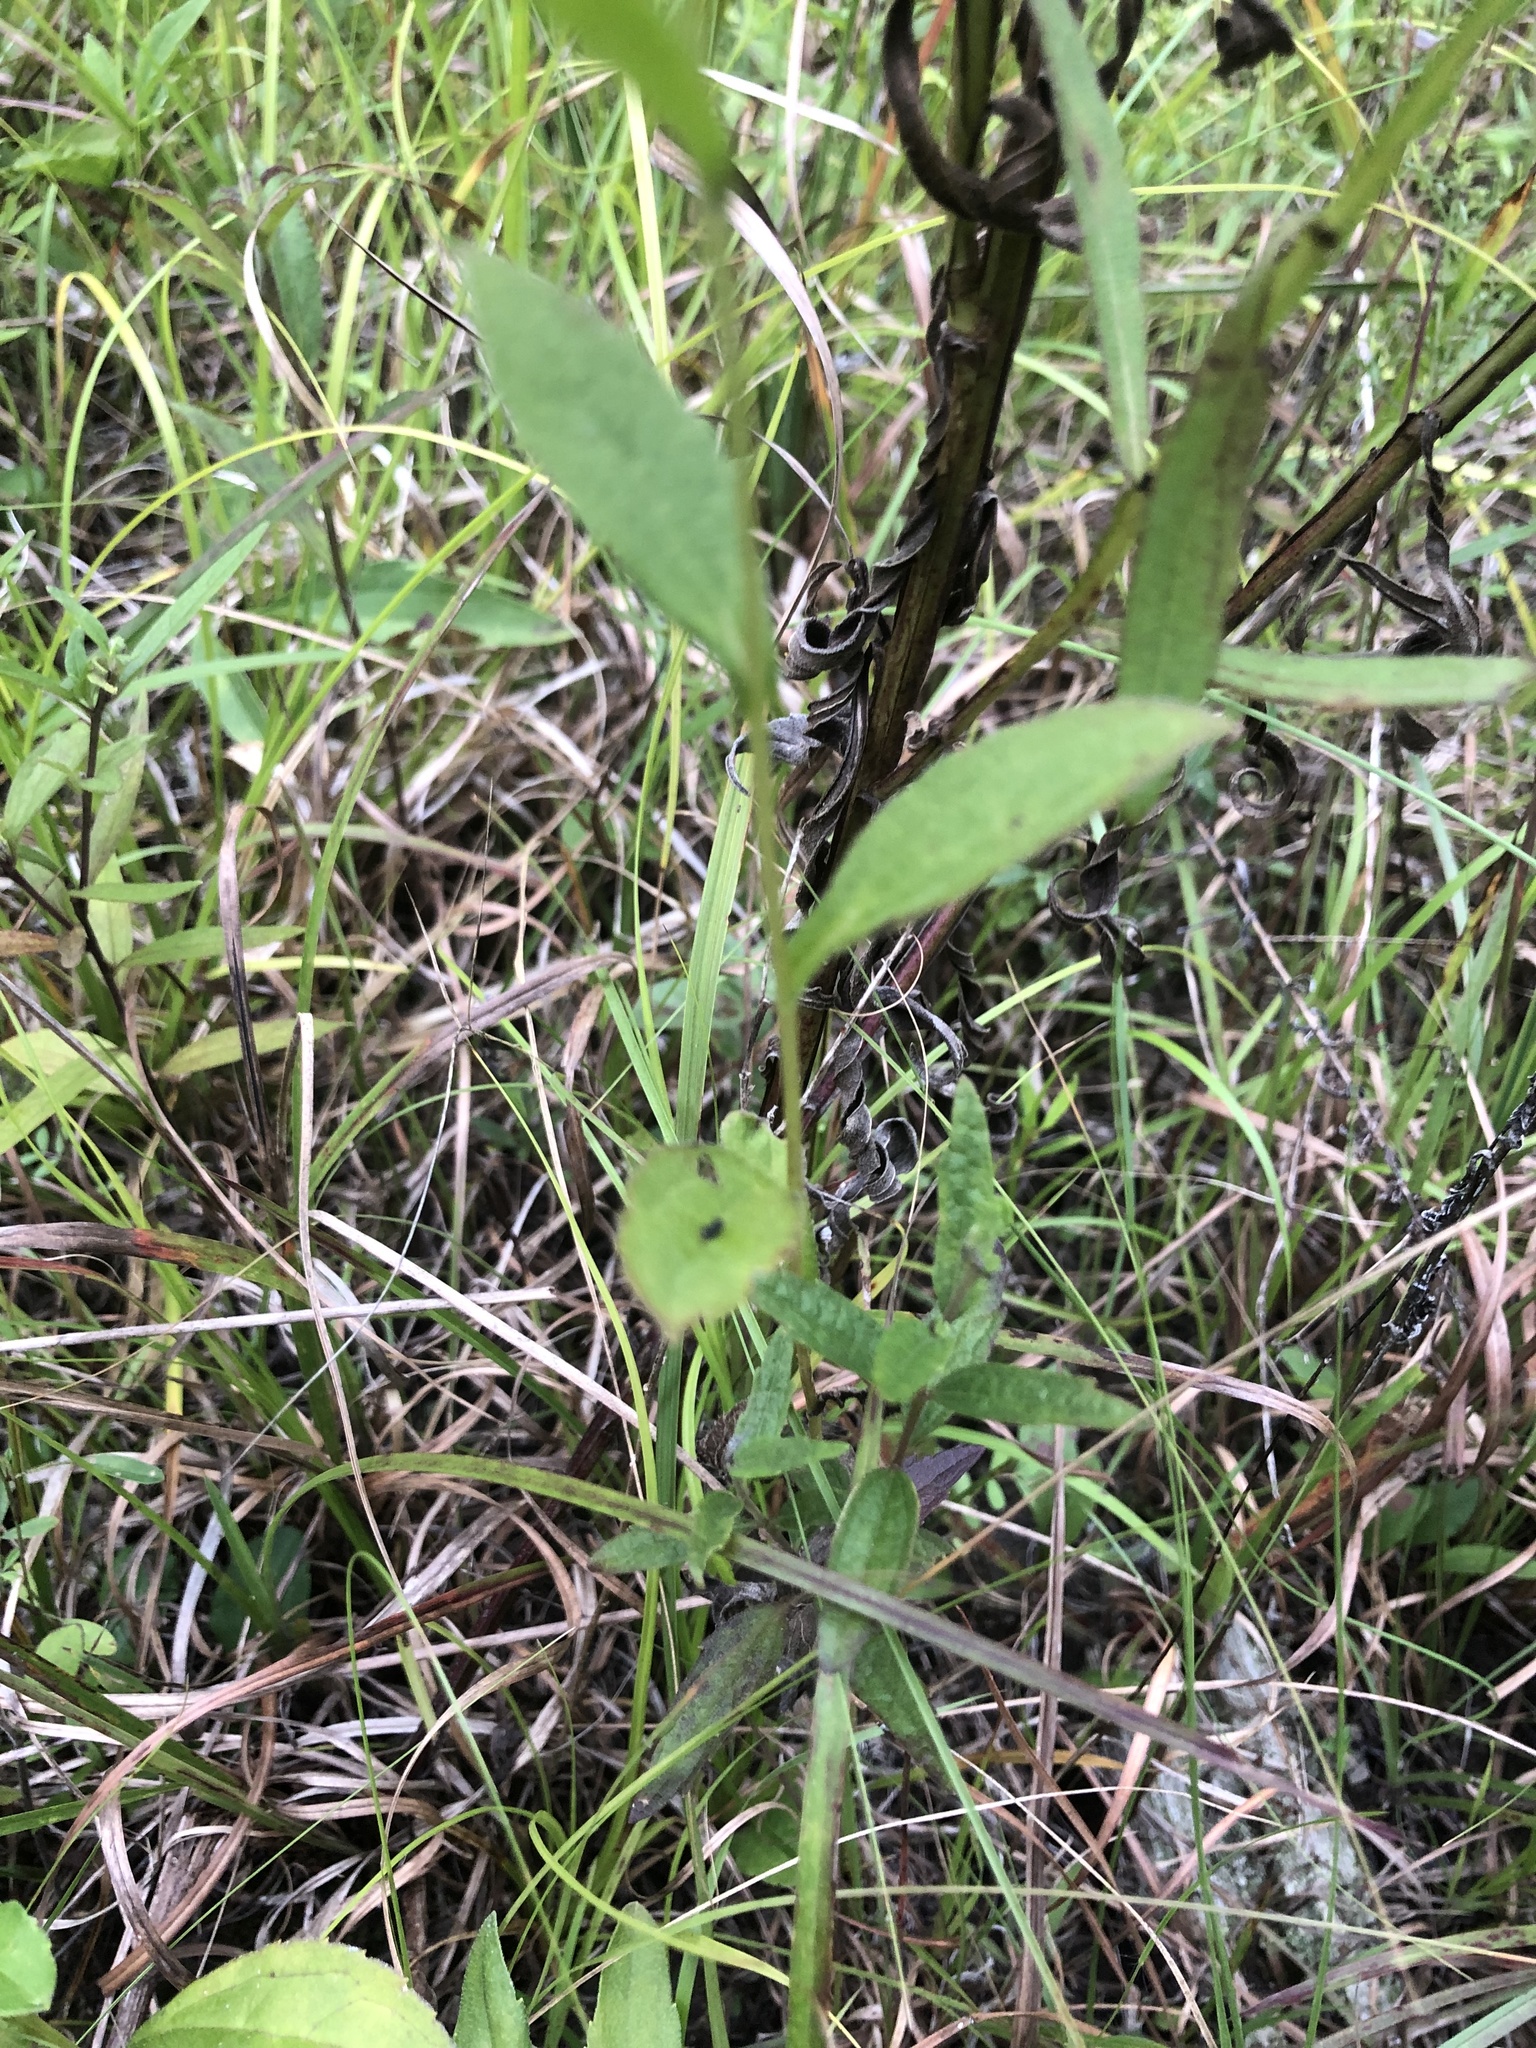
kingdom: Plantae
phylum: Tracheophyta
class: Magnoliopsida
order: Asterales
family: Asteraceae
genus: Rudbeckia
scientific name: Rudbeckia terranigrae
